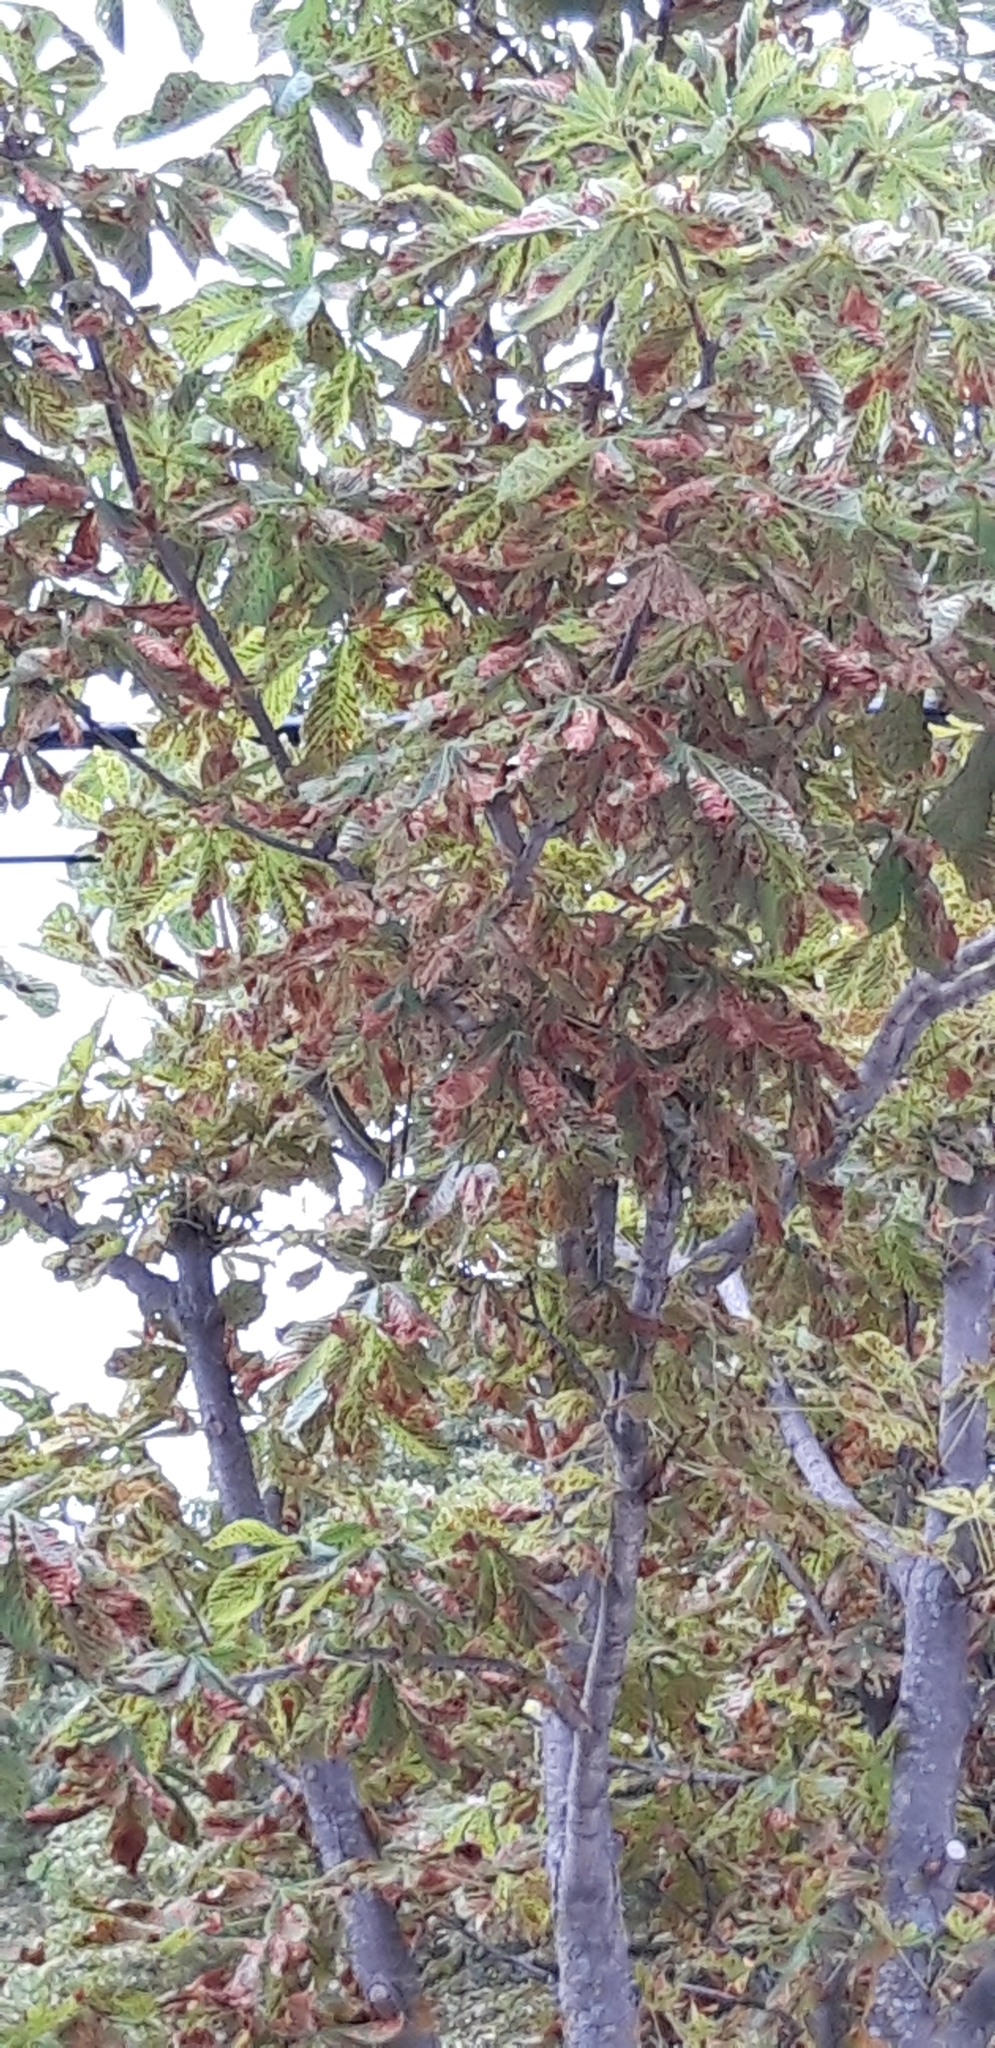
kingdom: Animalia
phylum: Arthropoda
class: Insecta
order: Lepidoptera
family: Gracillariidae
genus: Cameraria
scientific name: Cameraria ohridella
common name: Horse-chestnut leaf-miner
